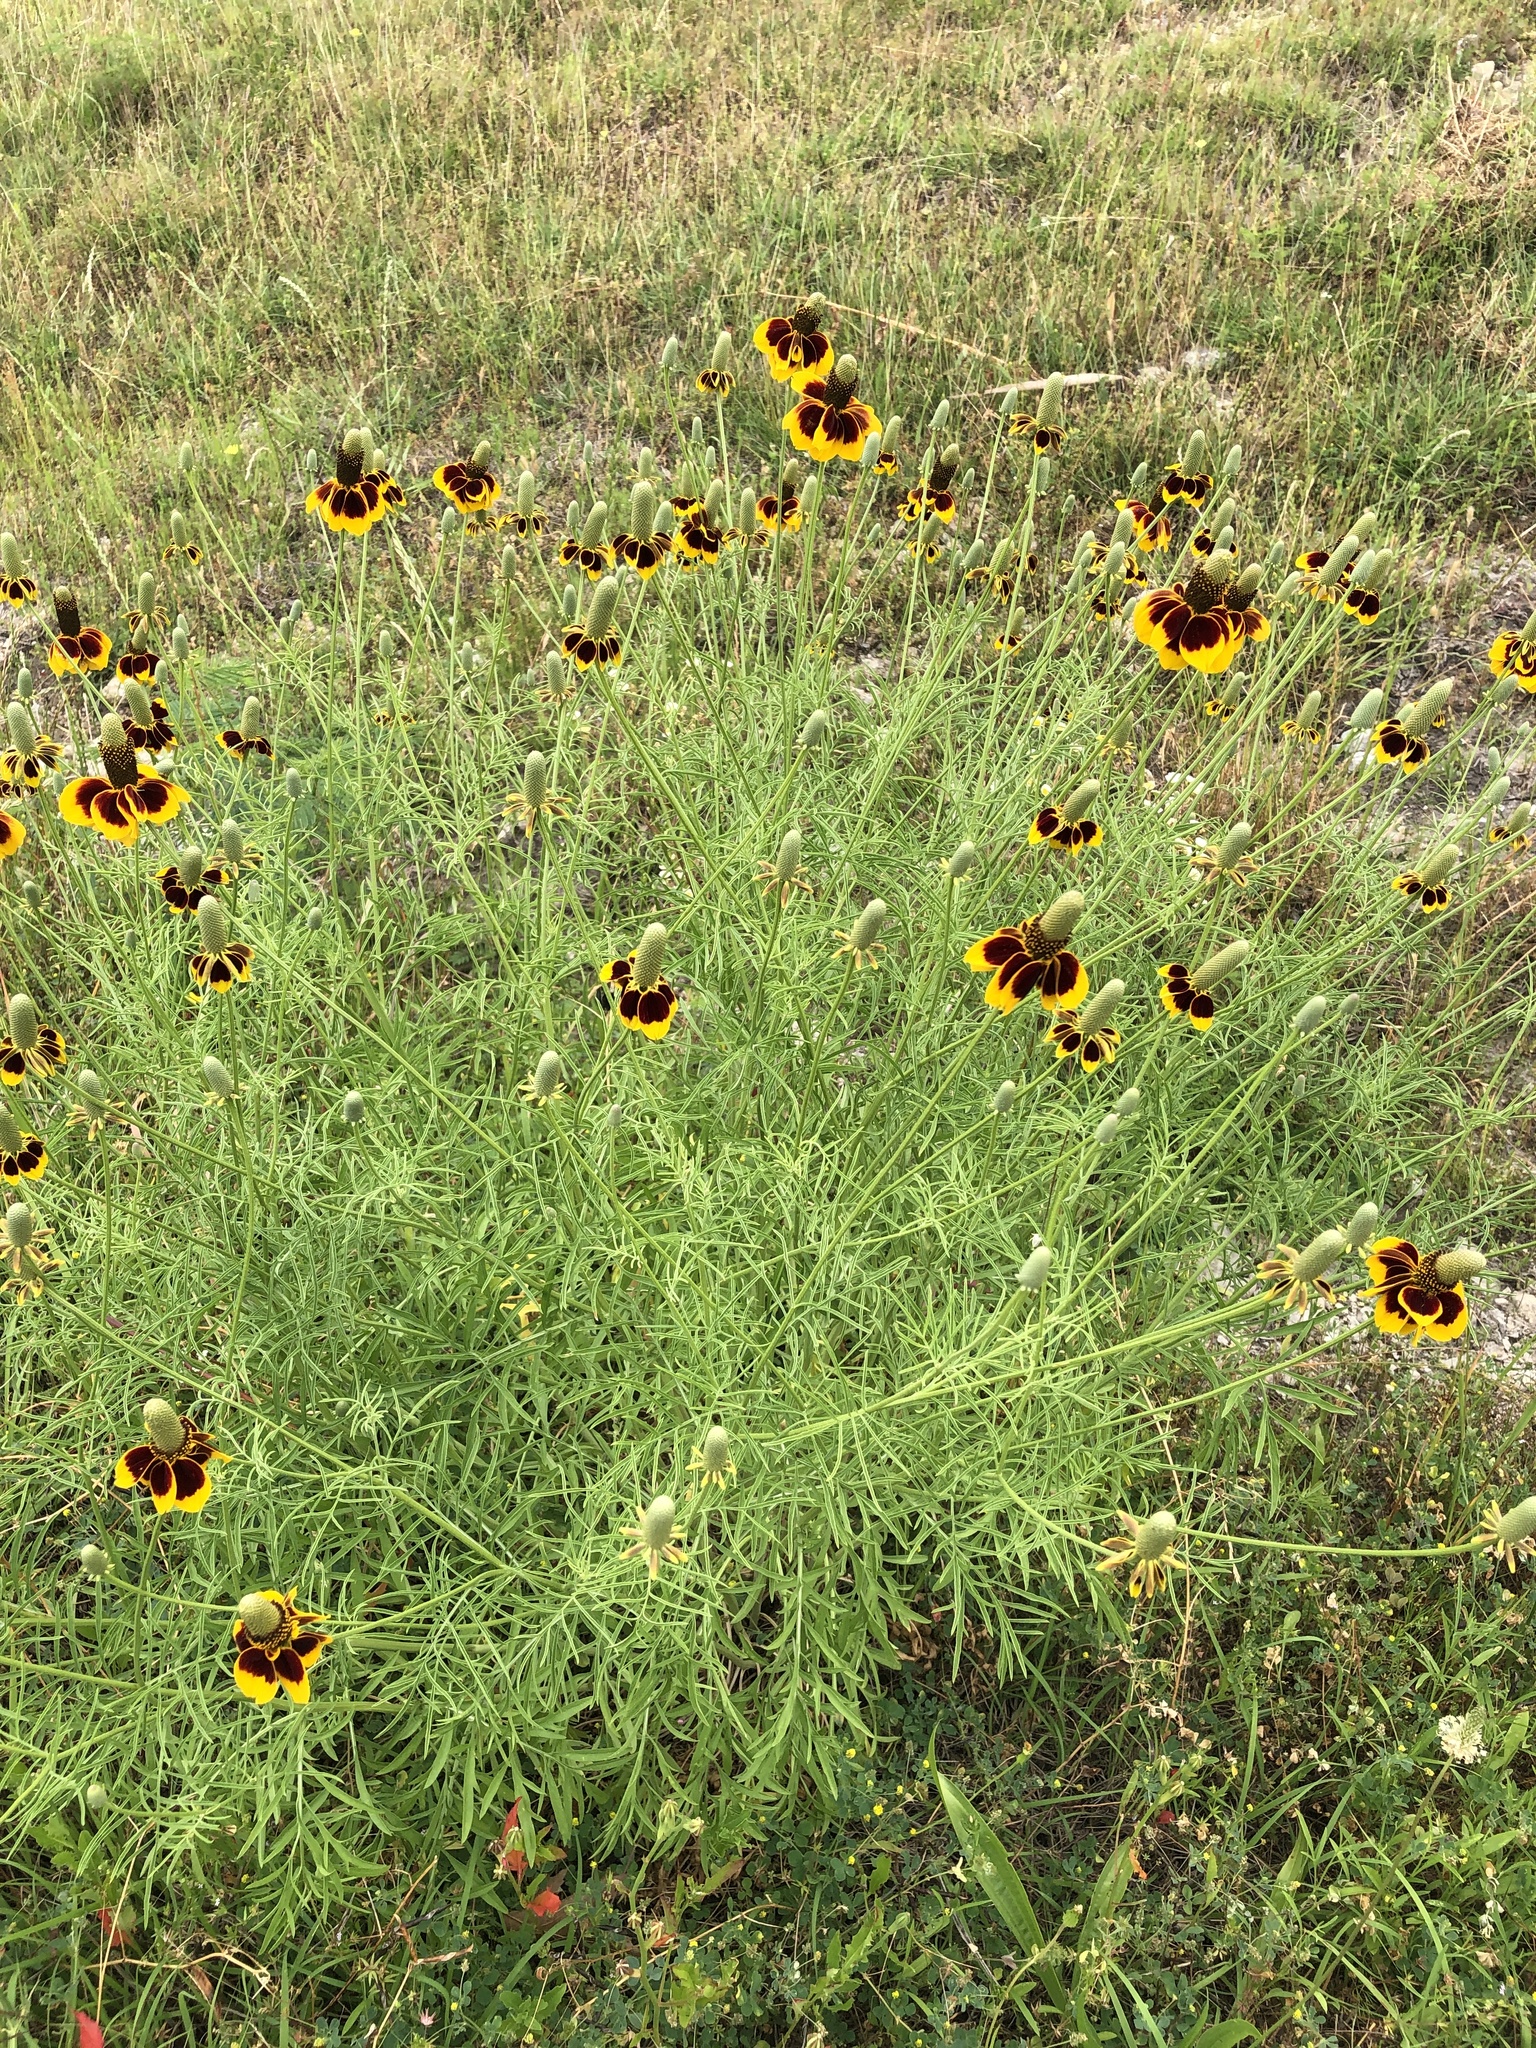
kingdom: Plantae
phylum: Tracheophyta
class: Magnoliopsida
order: Asterales
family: Asteraceae
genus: Ratibida
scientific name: Ratibida columnifera
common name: Prairie coneflower
